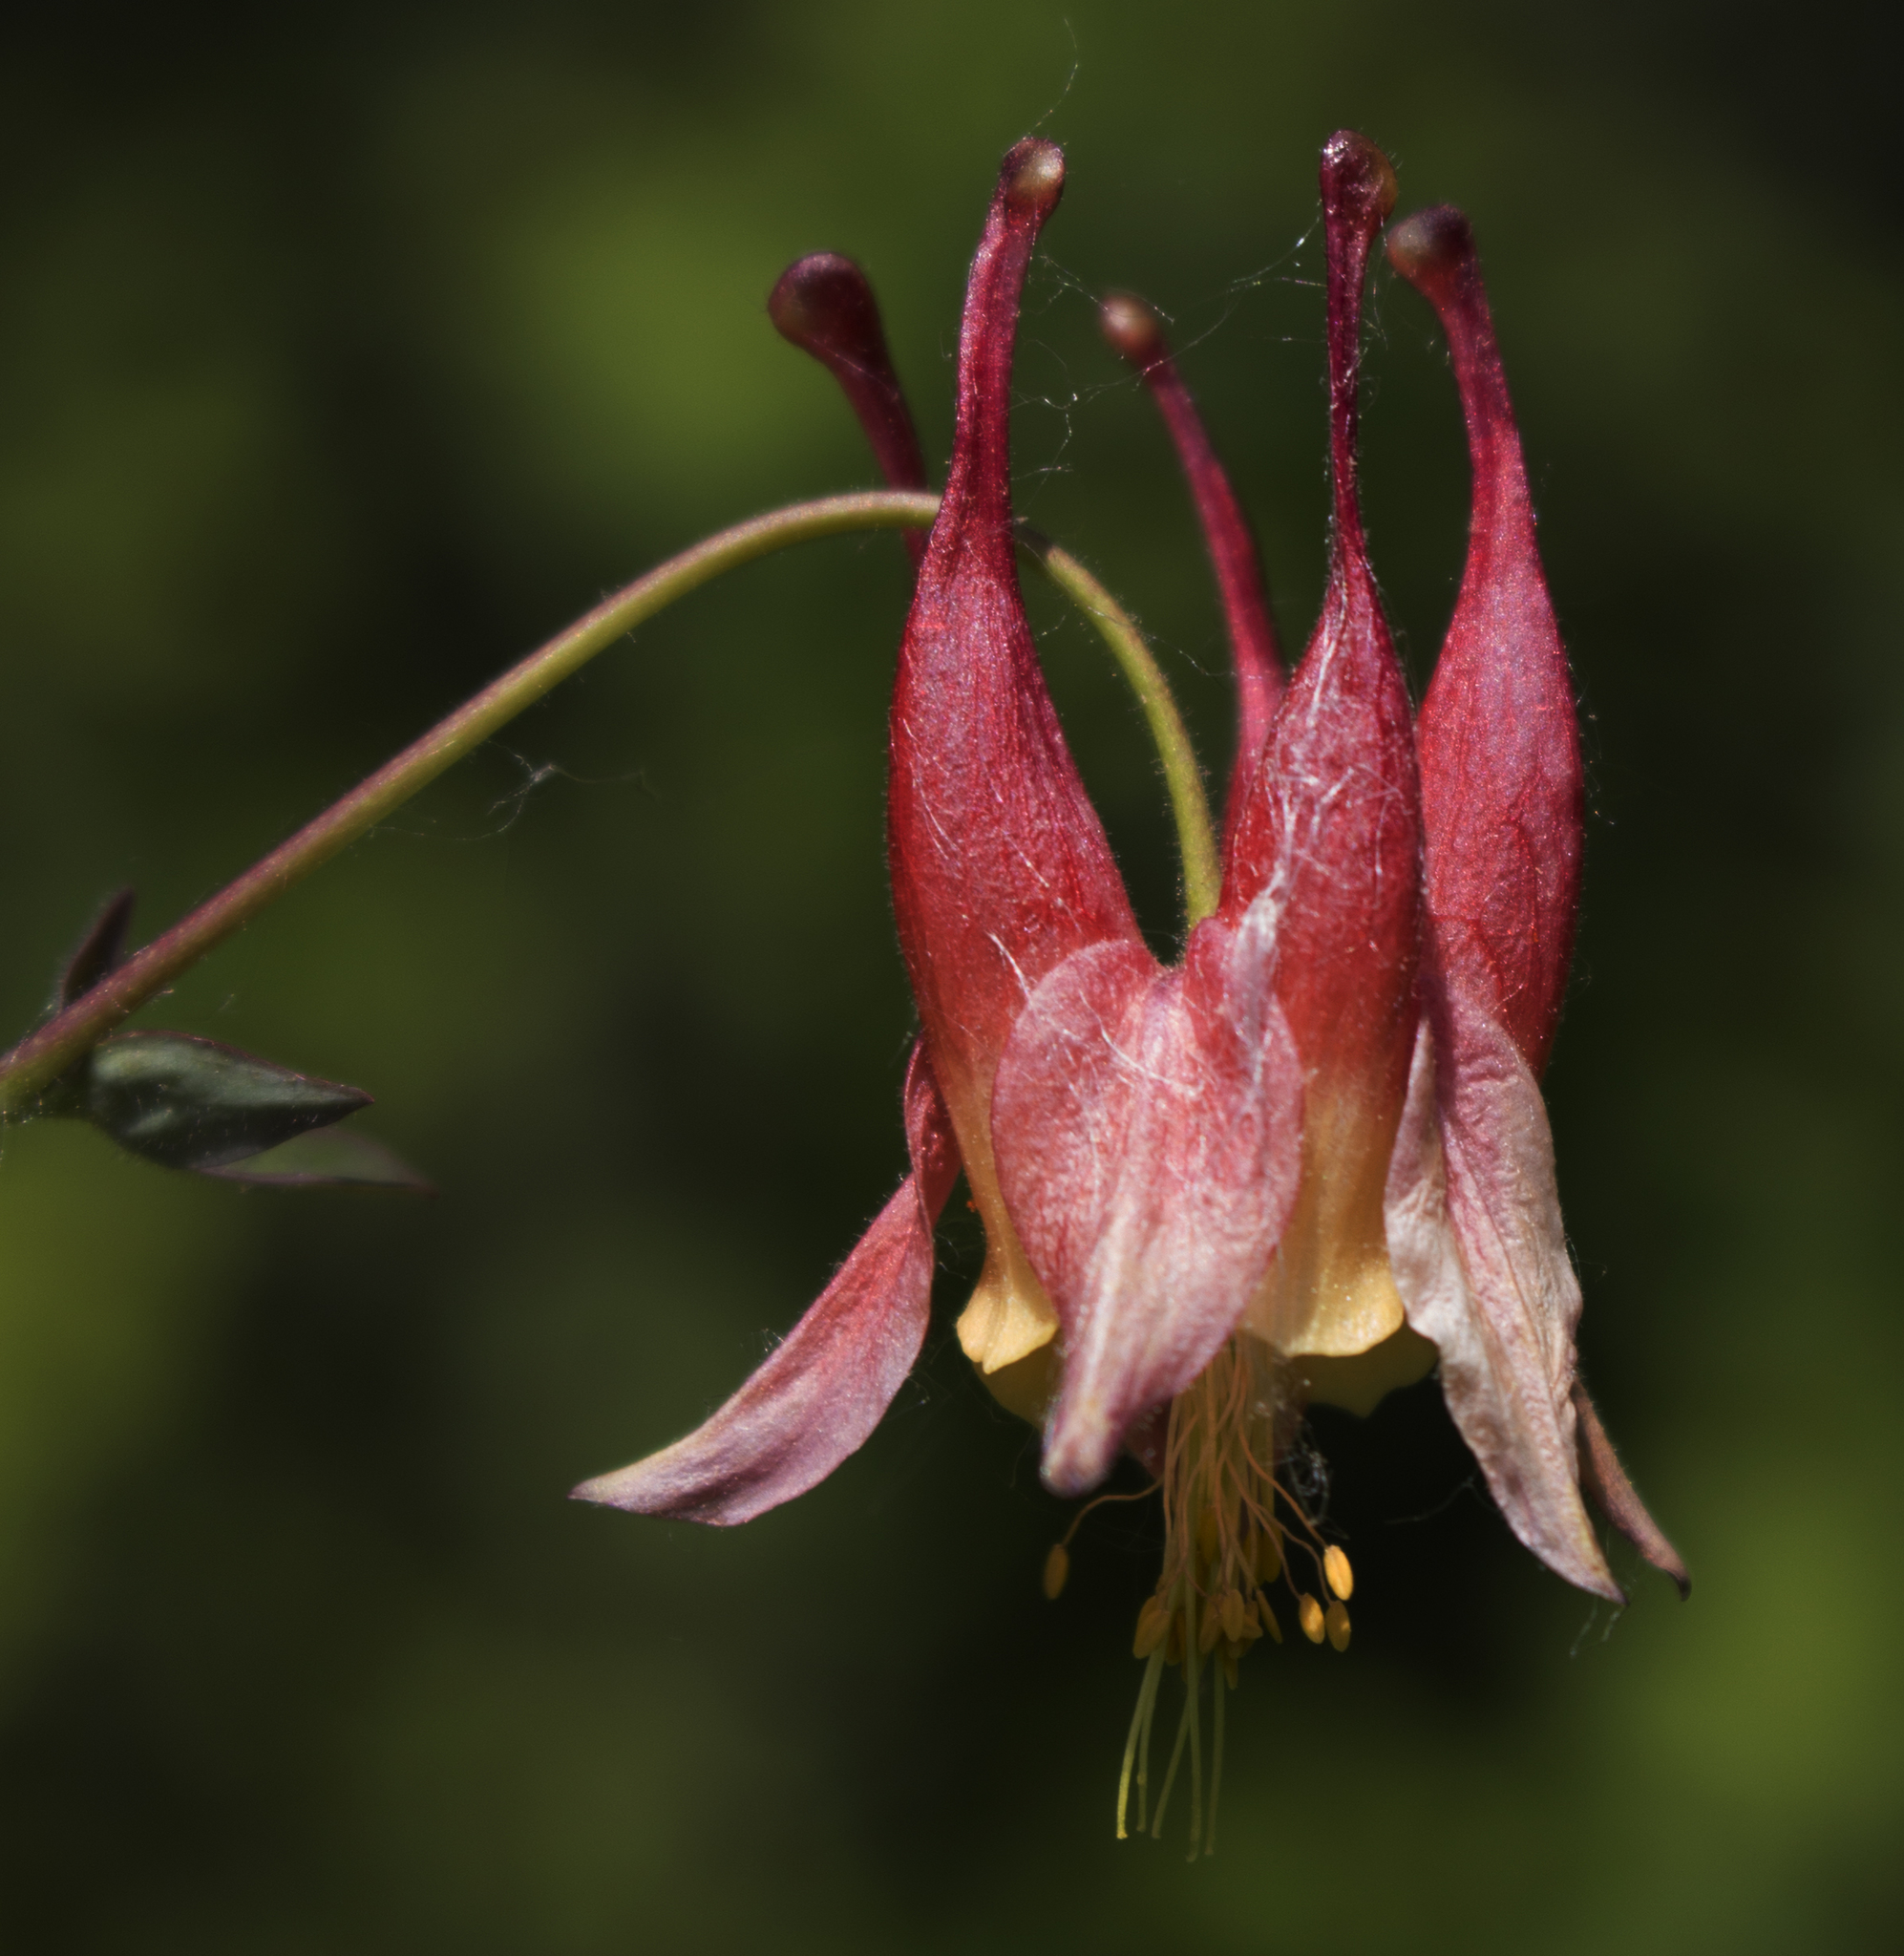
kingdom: Plantae
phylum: Tracheophyta
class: Magnoliopsida
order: Ranunculales
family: Ranunculaceae
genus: Aquilegia
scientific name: Aquilegia canadensis
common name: American columbine
